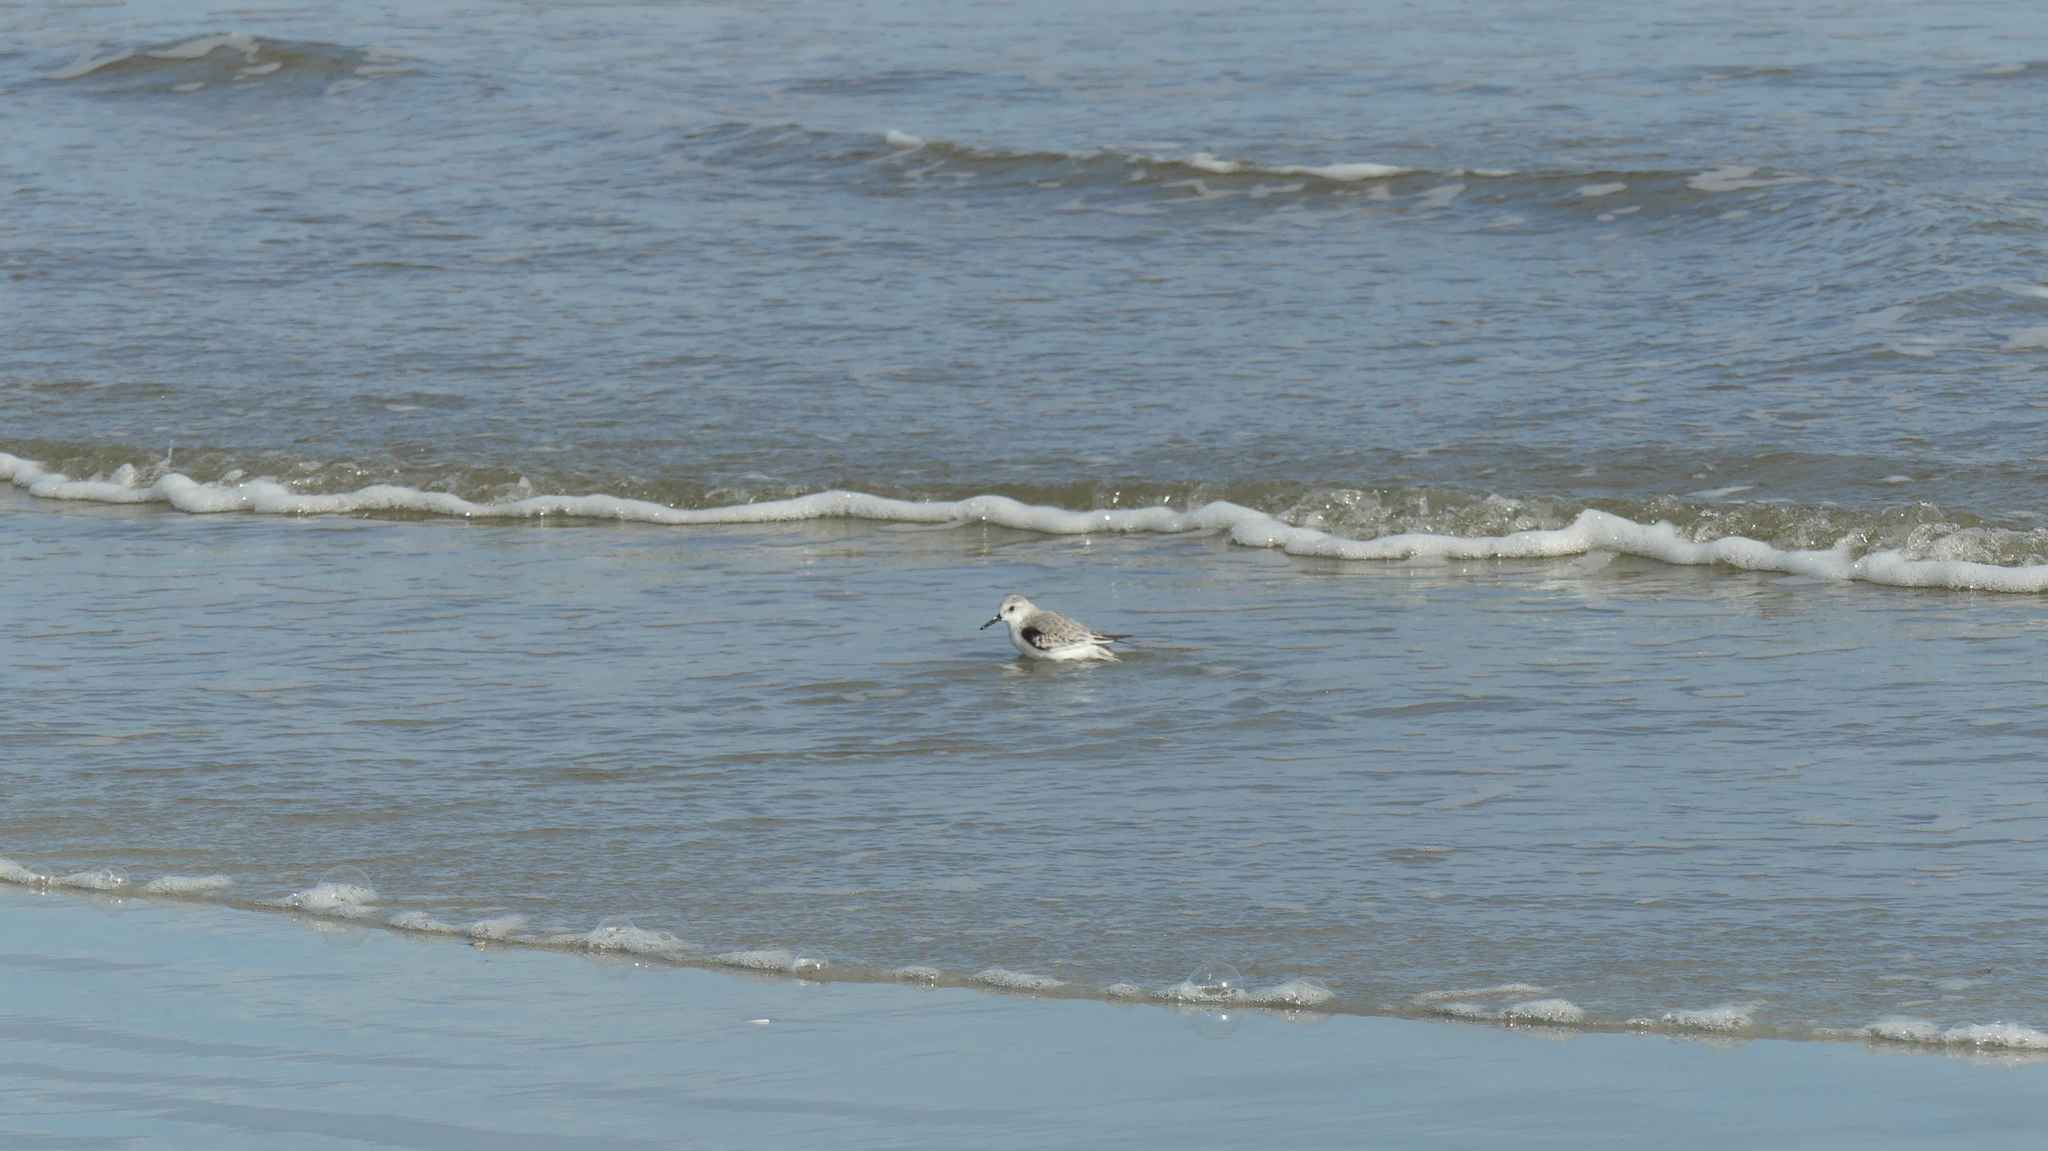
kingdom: Animalia
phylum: Chordata
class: Aves
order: Charadriiformes
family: Scolopacidae
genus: Calidris
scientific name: Calidris alba
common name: Sanderling
